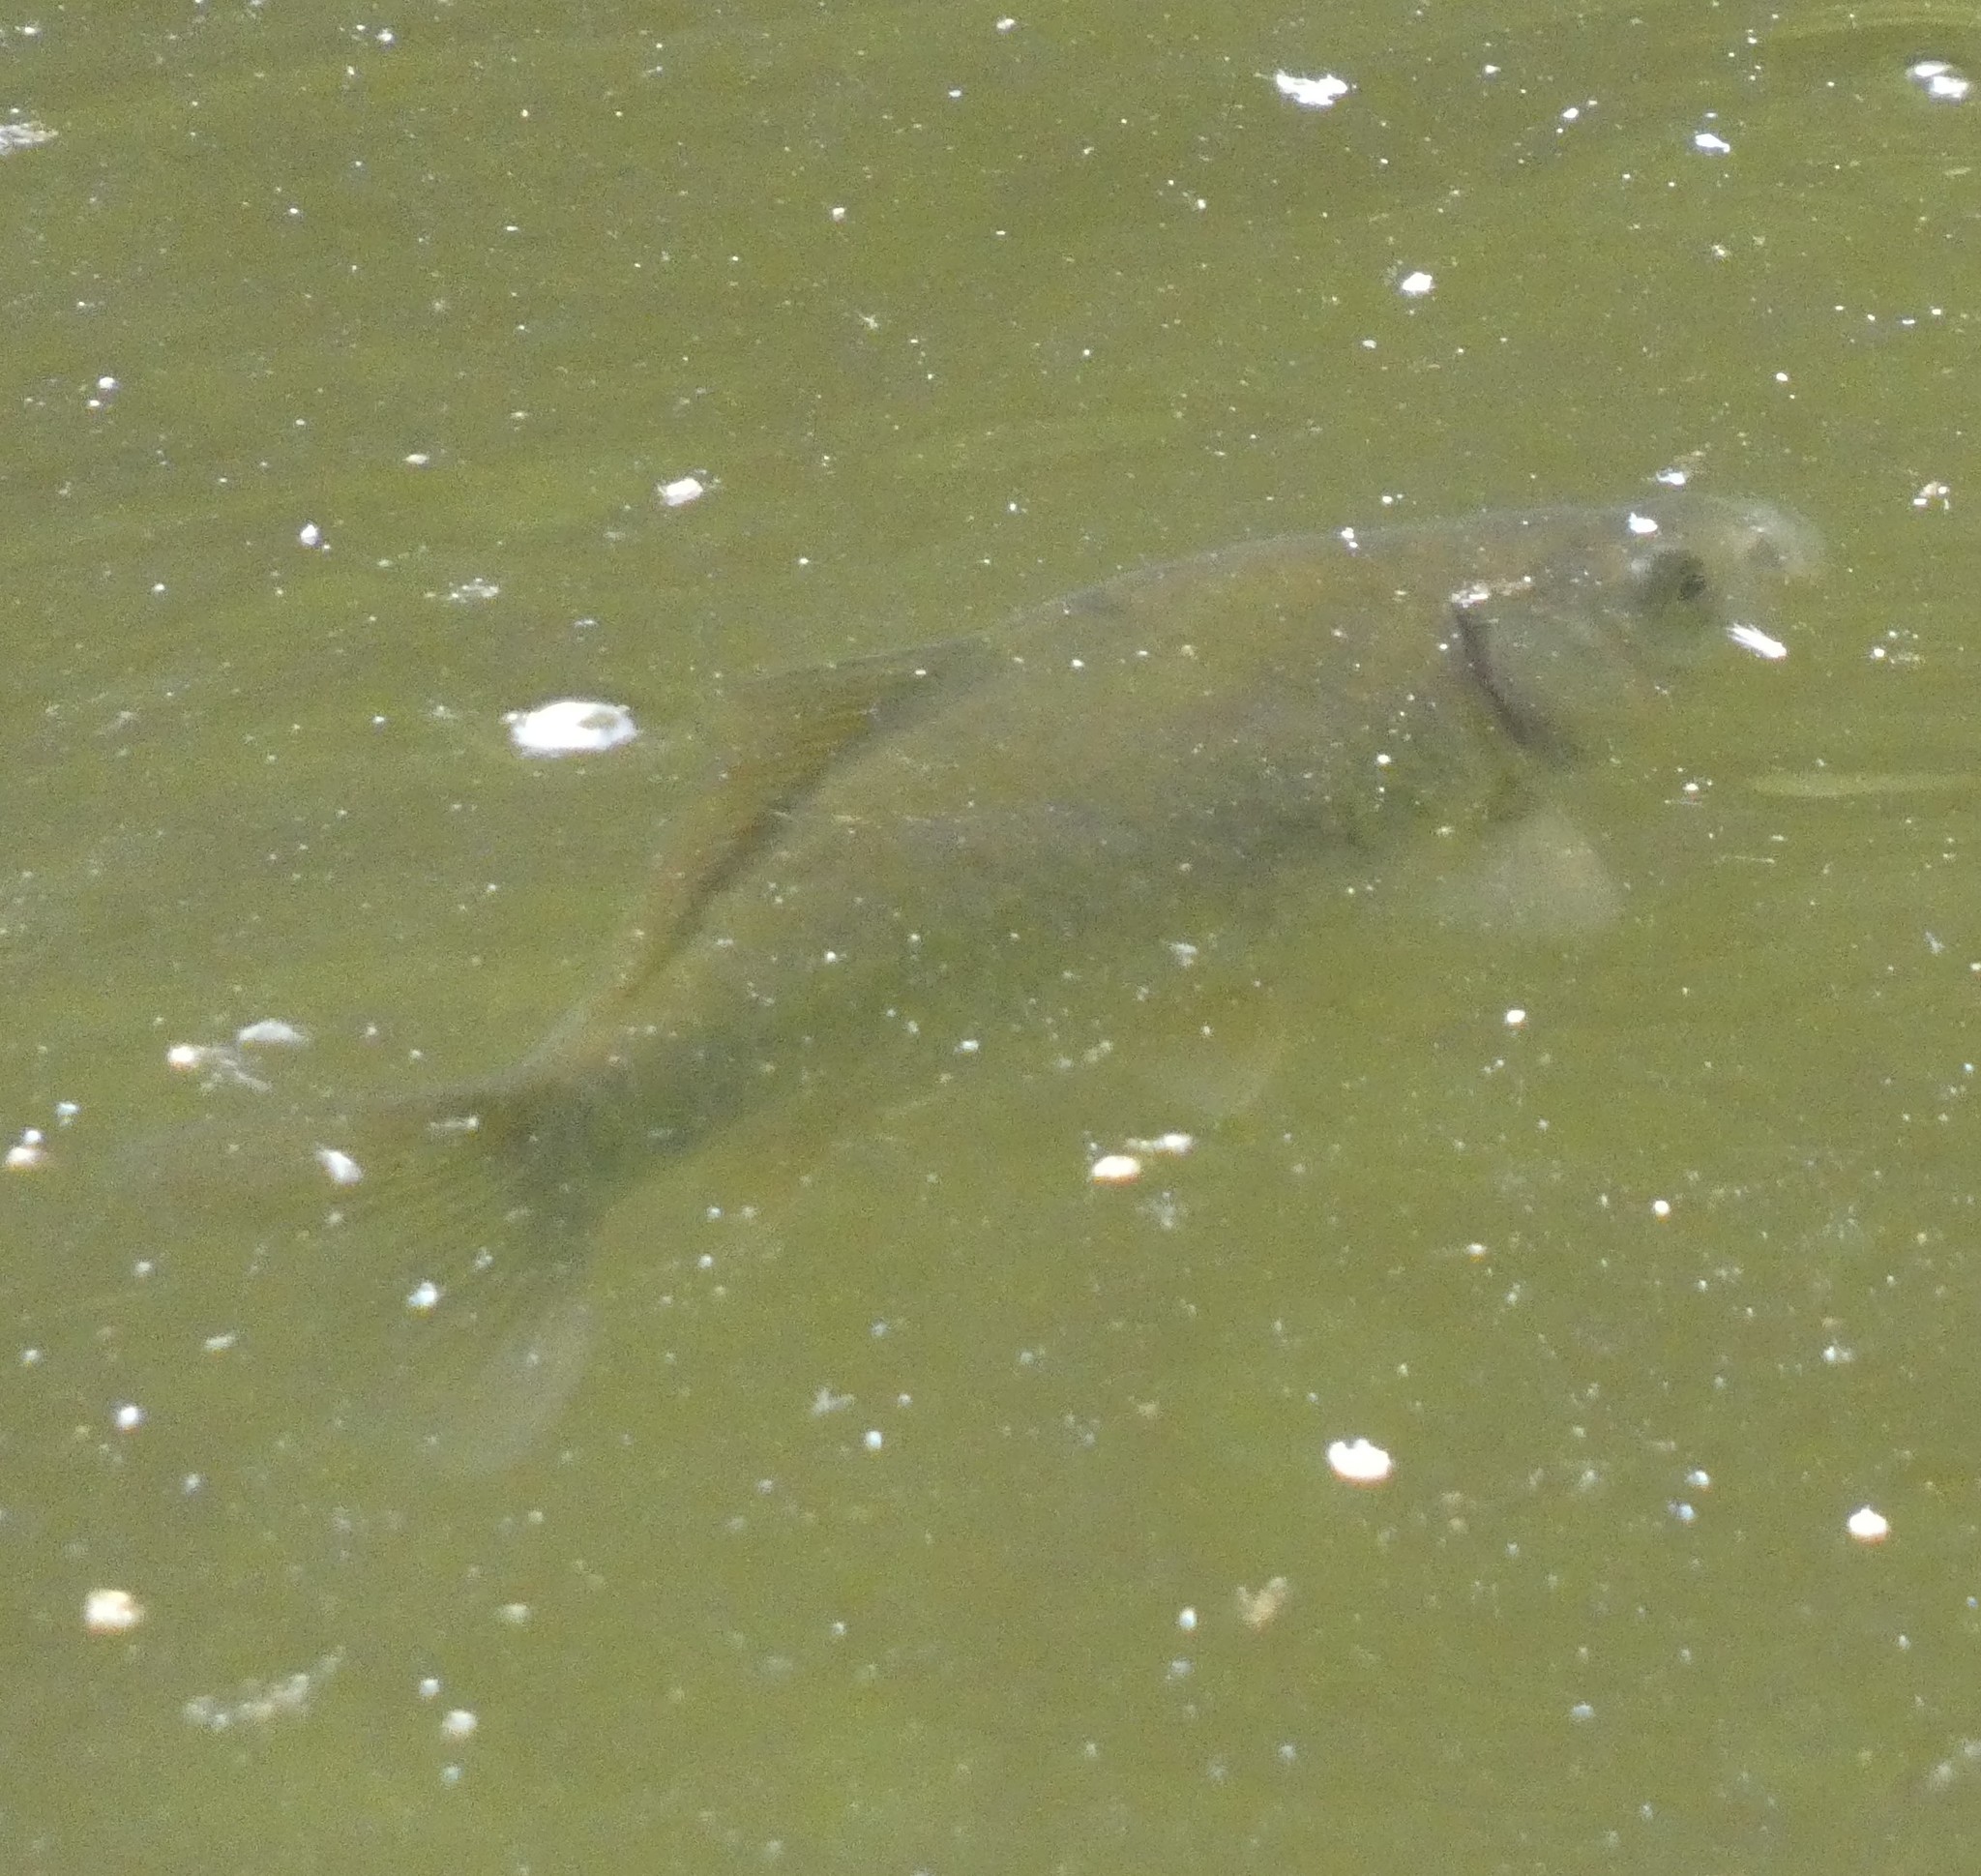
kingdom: Animalia
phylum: Chordata
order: Cypriniformes
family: Cyprinidae
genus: Cyprinus
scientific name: Cyprinus carpio
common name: Common carp
